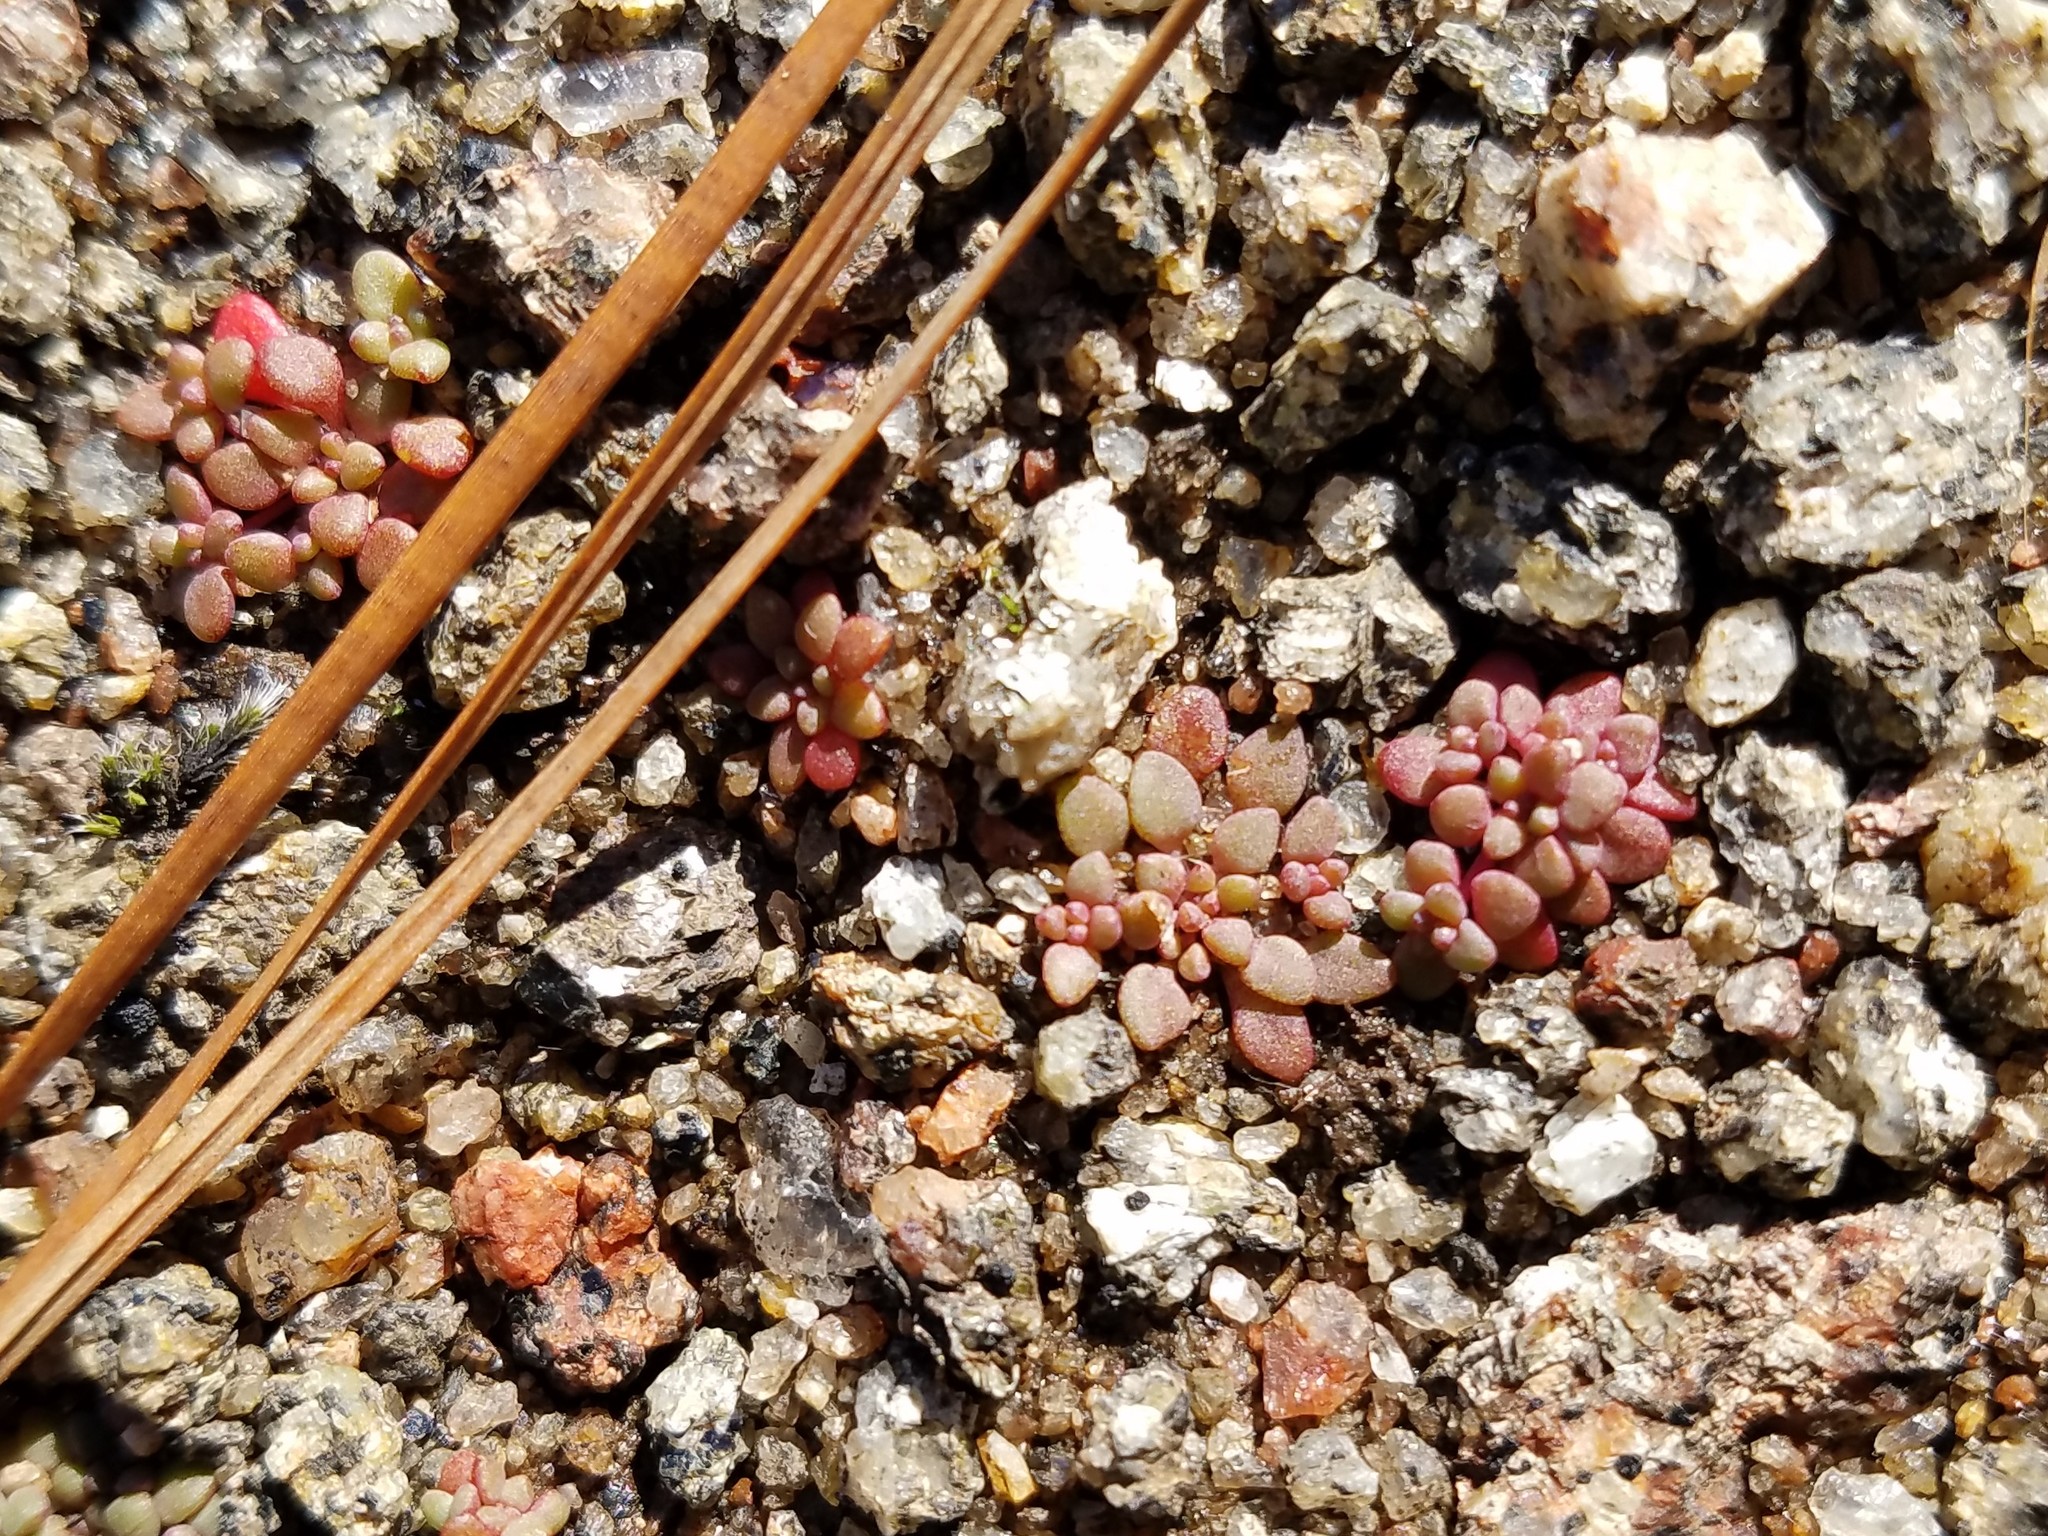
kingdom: Plantae
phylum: Tracheophyta
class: Magnoliopsida
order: Saxifragales
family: Crassulaceae
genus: Sedum
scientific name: Sedum smallii
